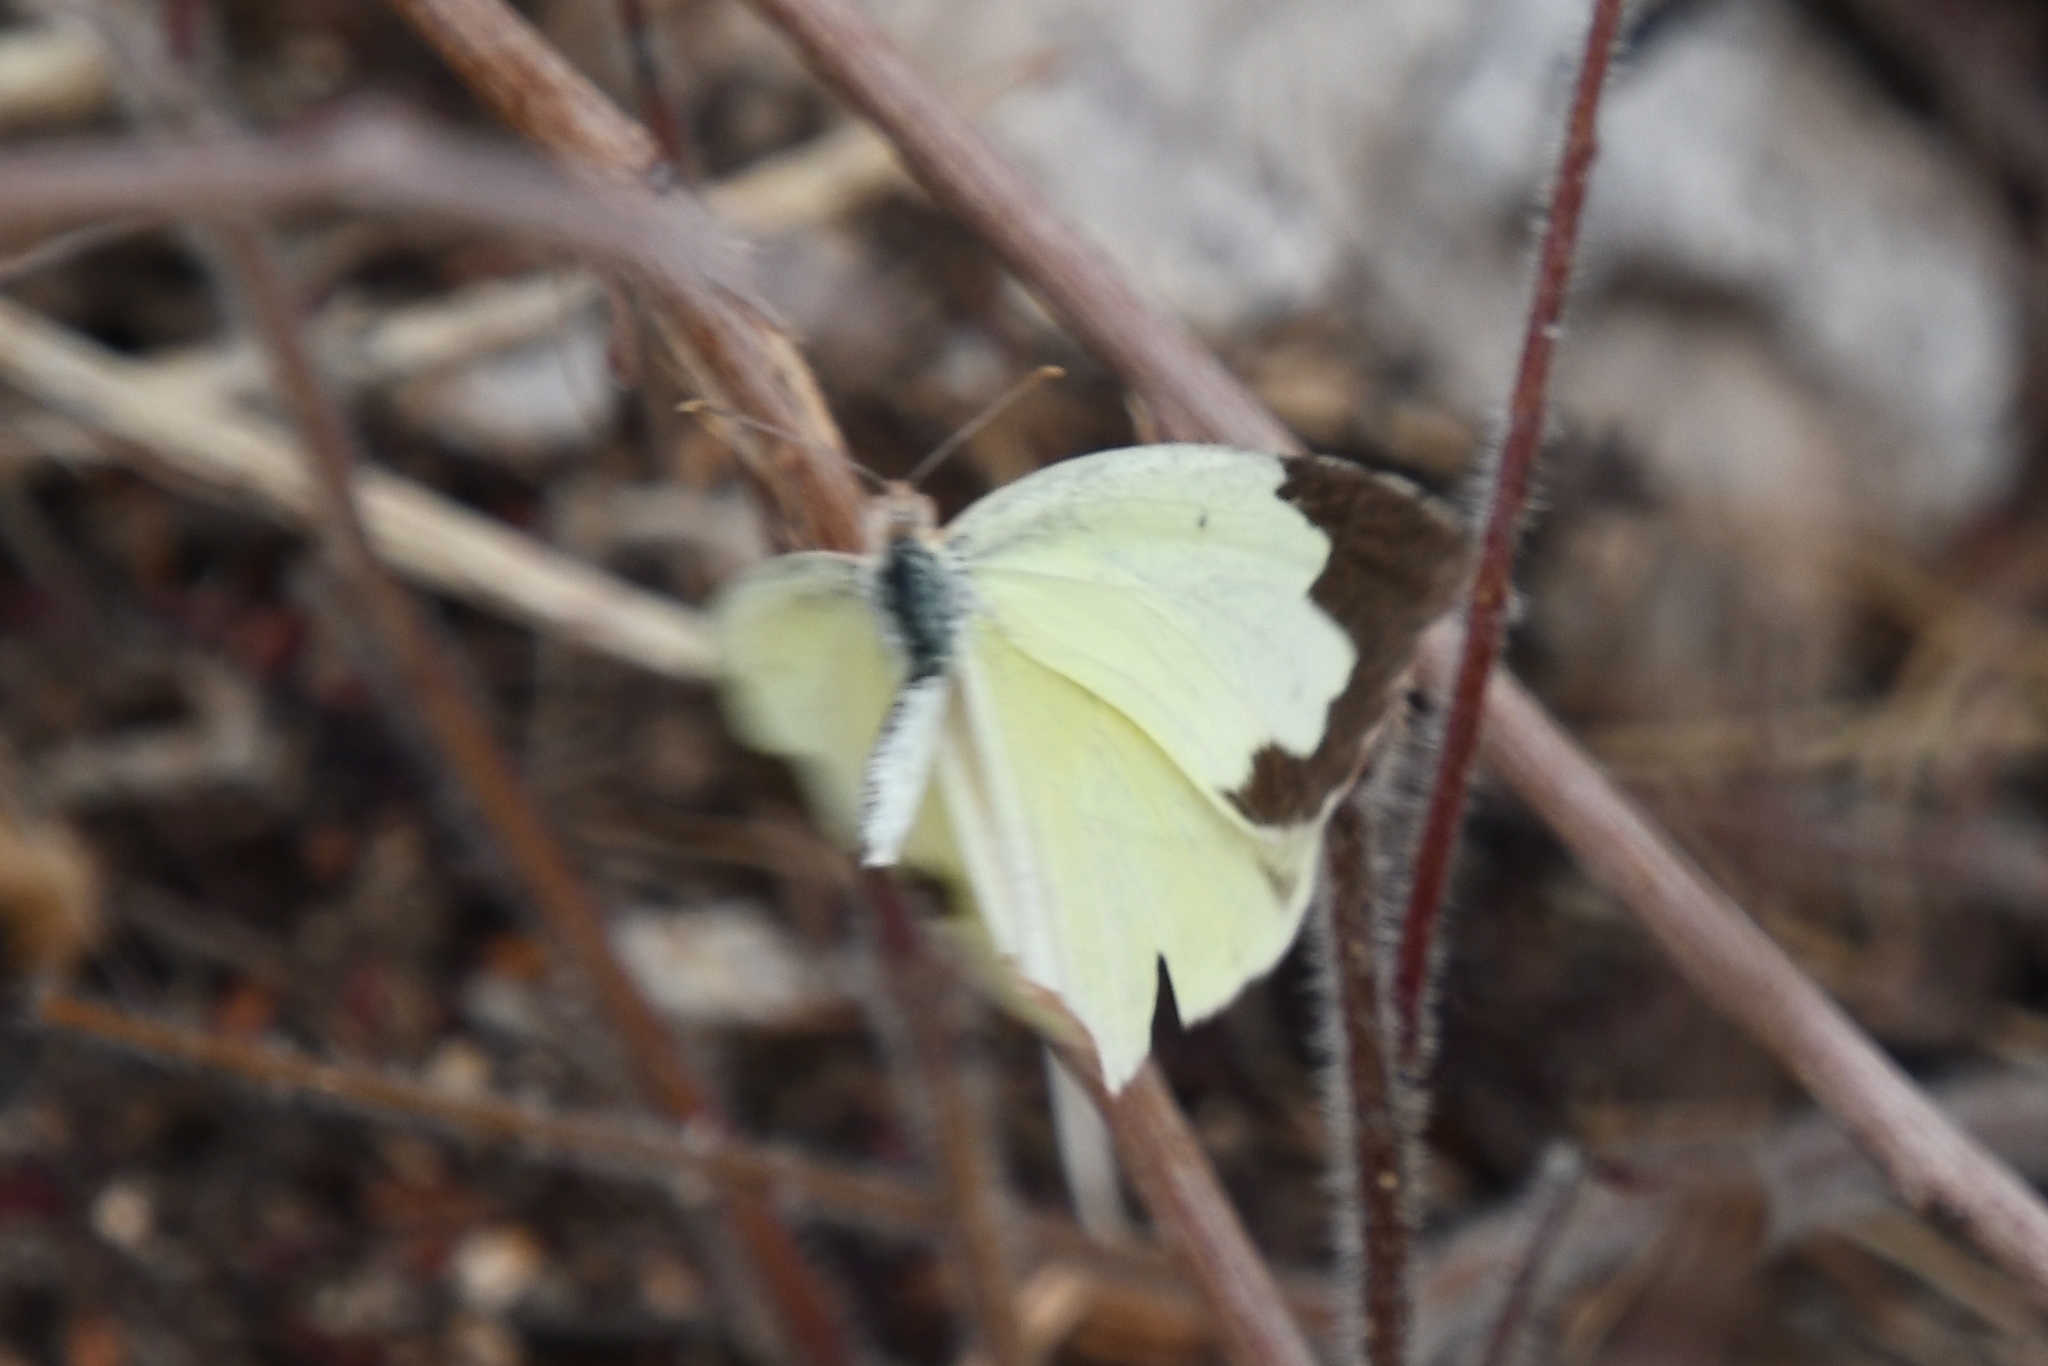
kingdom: Animalia
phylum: Arthropoda
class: Insecta
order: Lepidoptera
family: Pieridae
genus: Abaeis
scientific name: Abaeis mexicana
